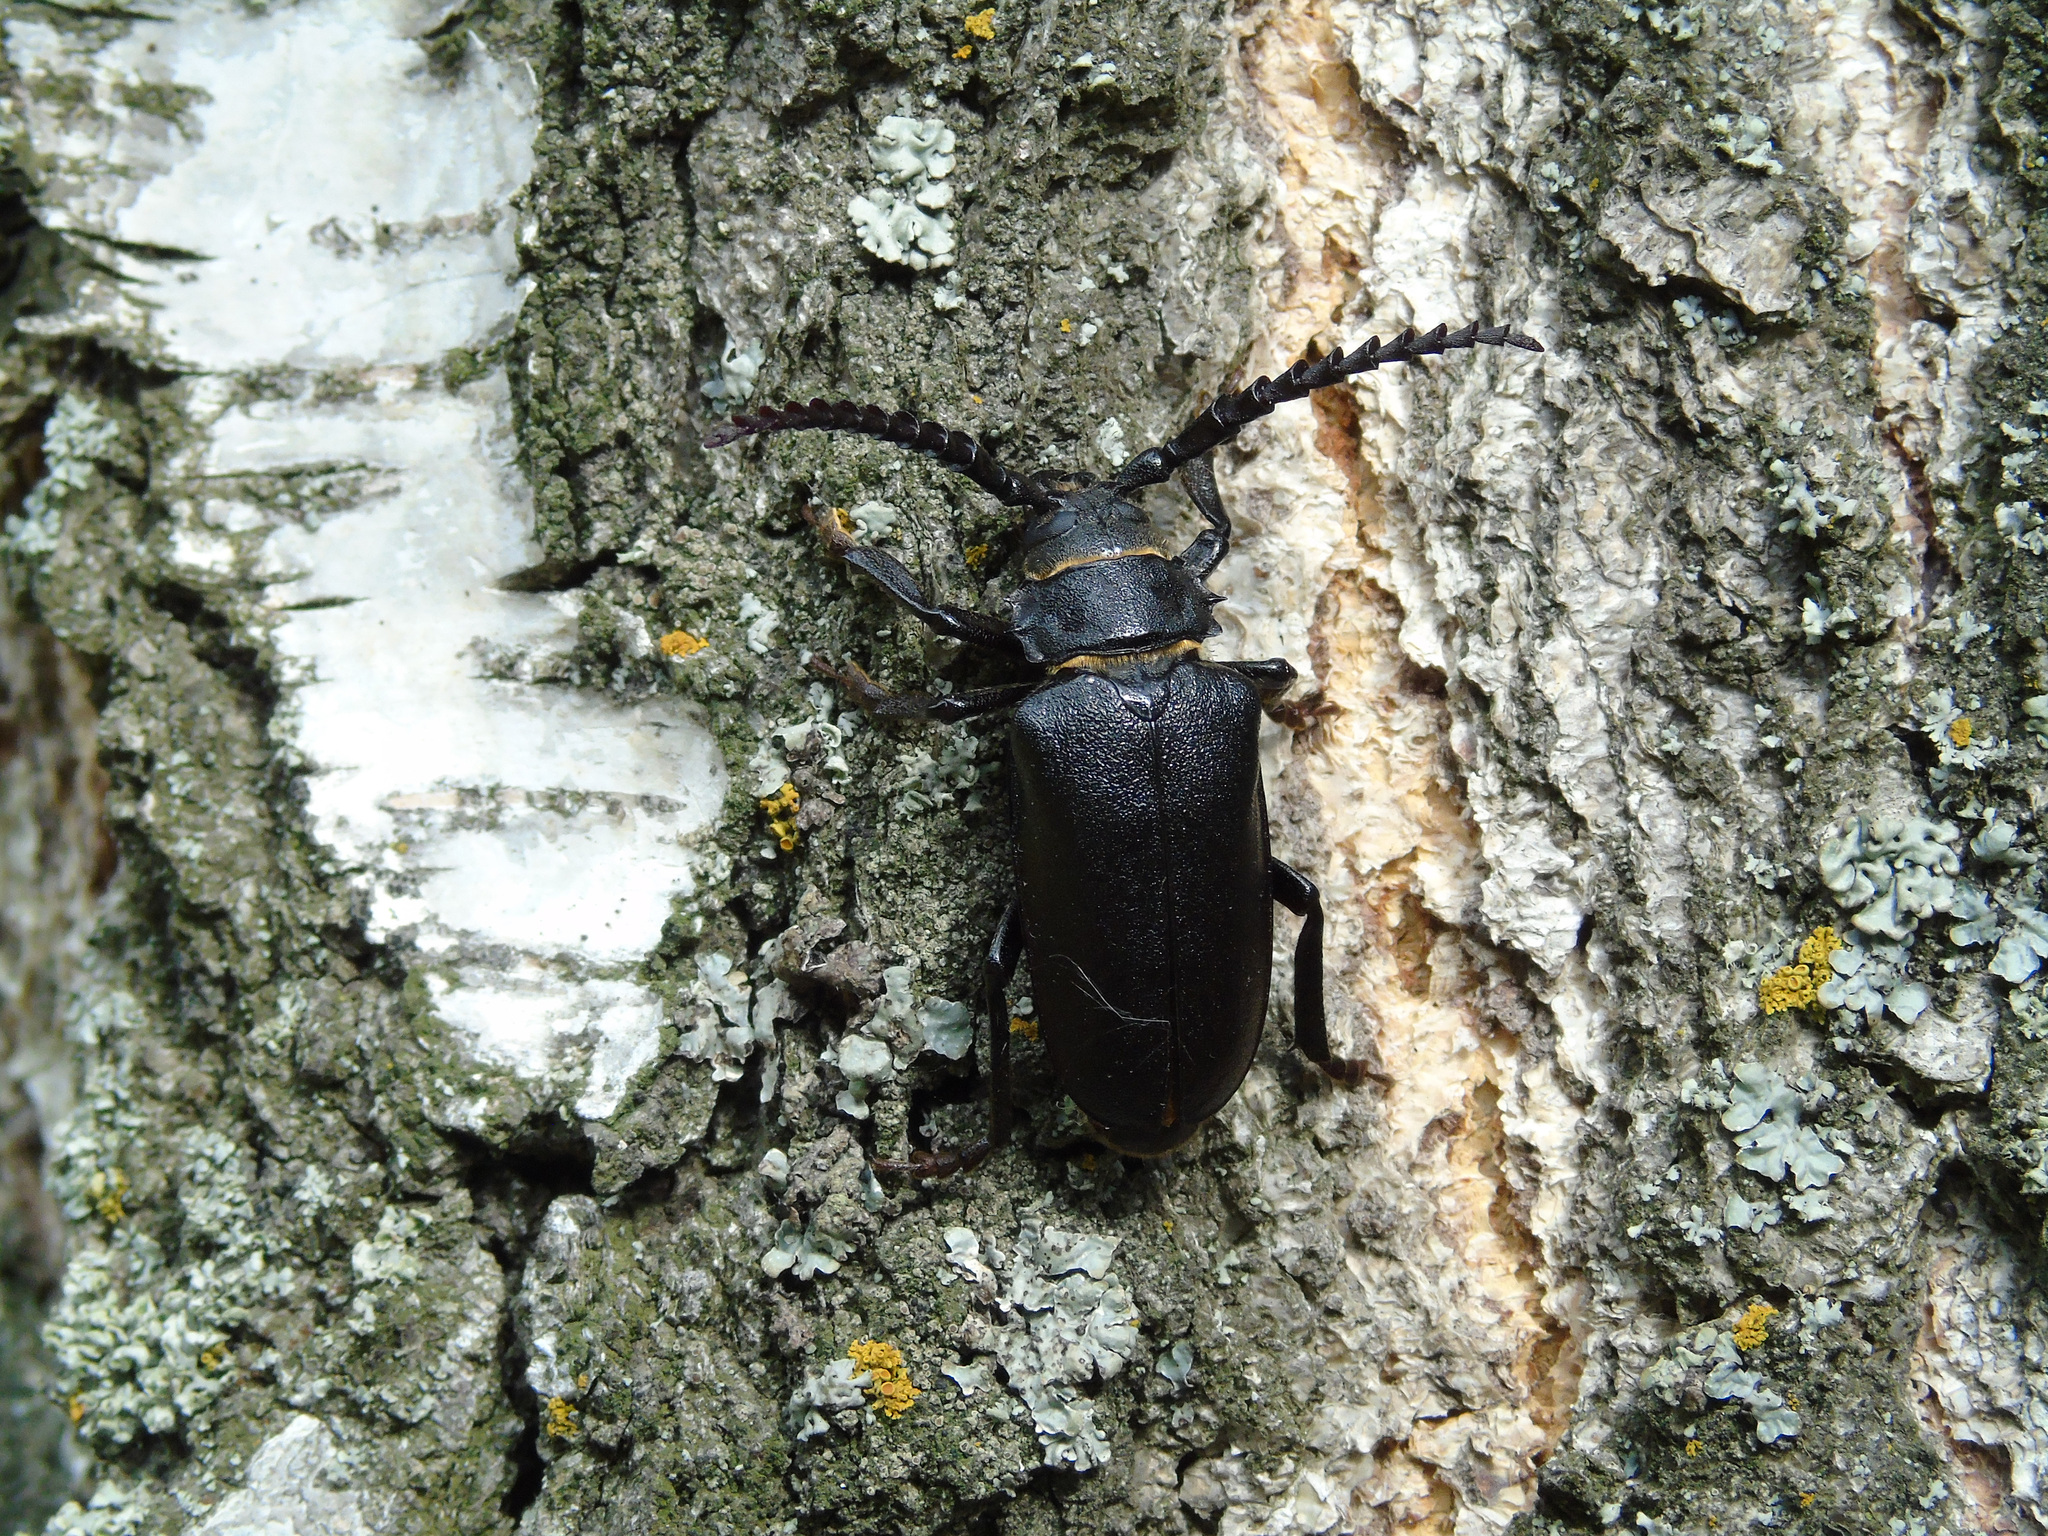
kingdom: Animalia
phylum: Arthropoda
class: Insecta
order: Coleoptera
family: Cerambycidae
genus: Prionus
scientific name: Prionus coriarius
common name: Tanner beetle
